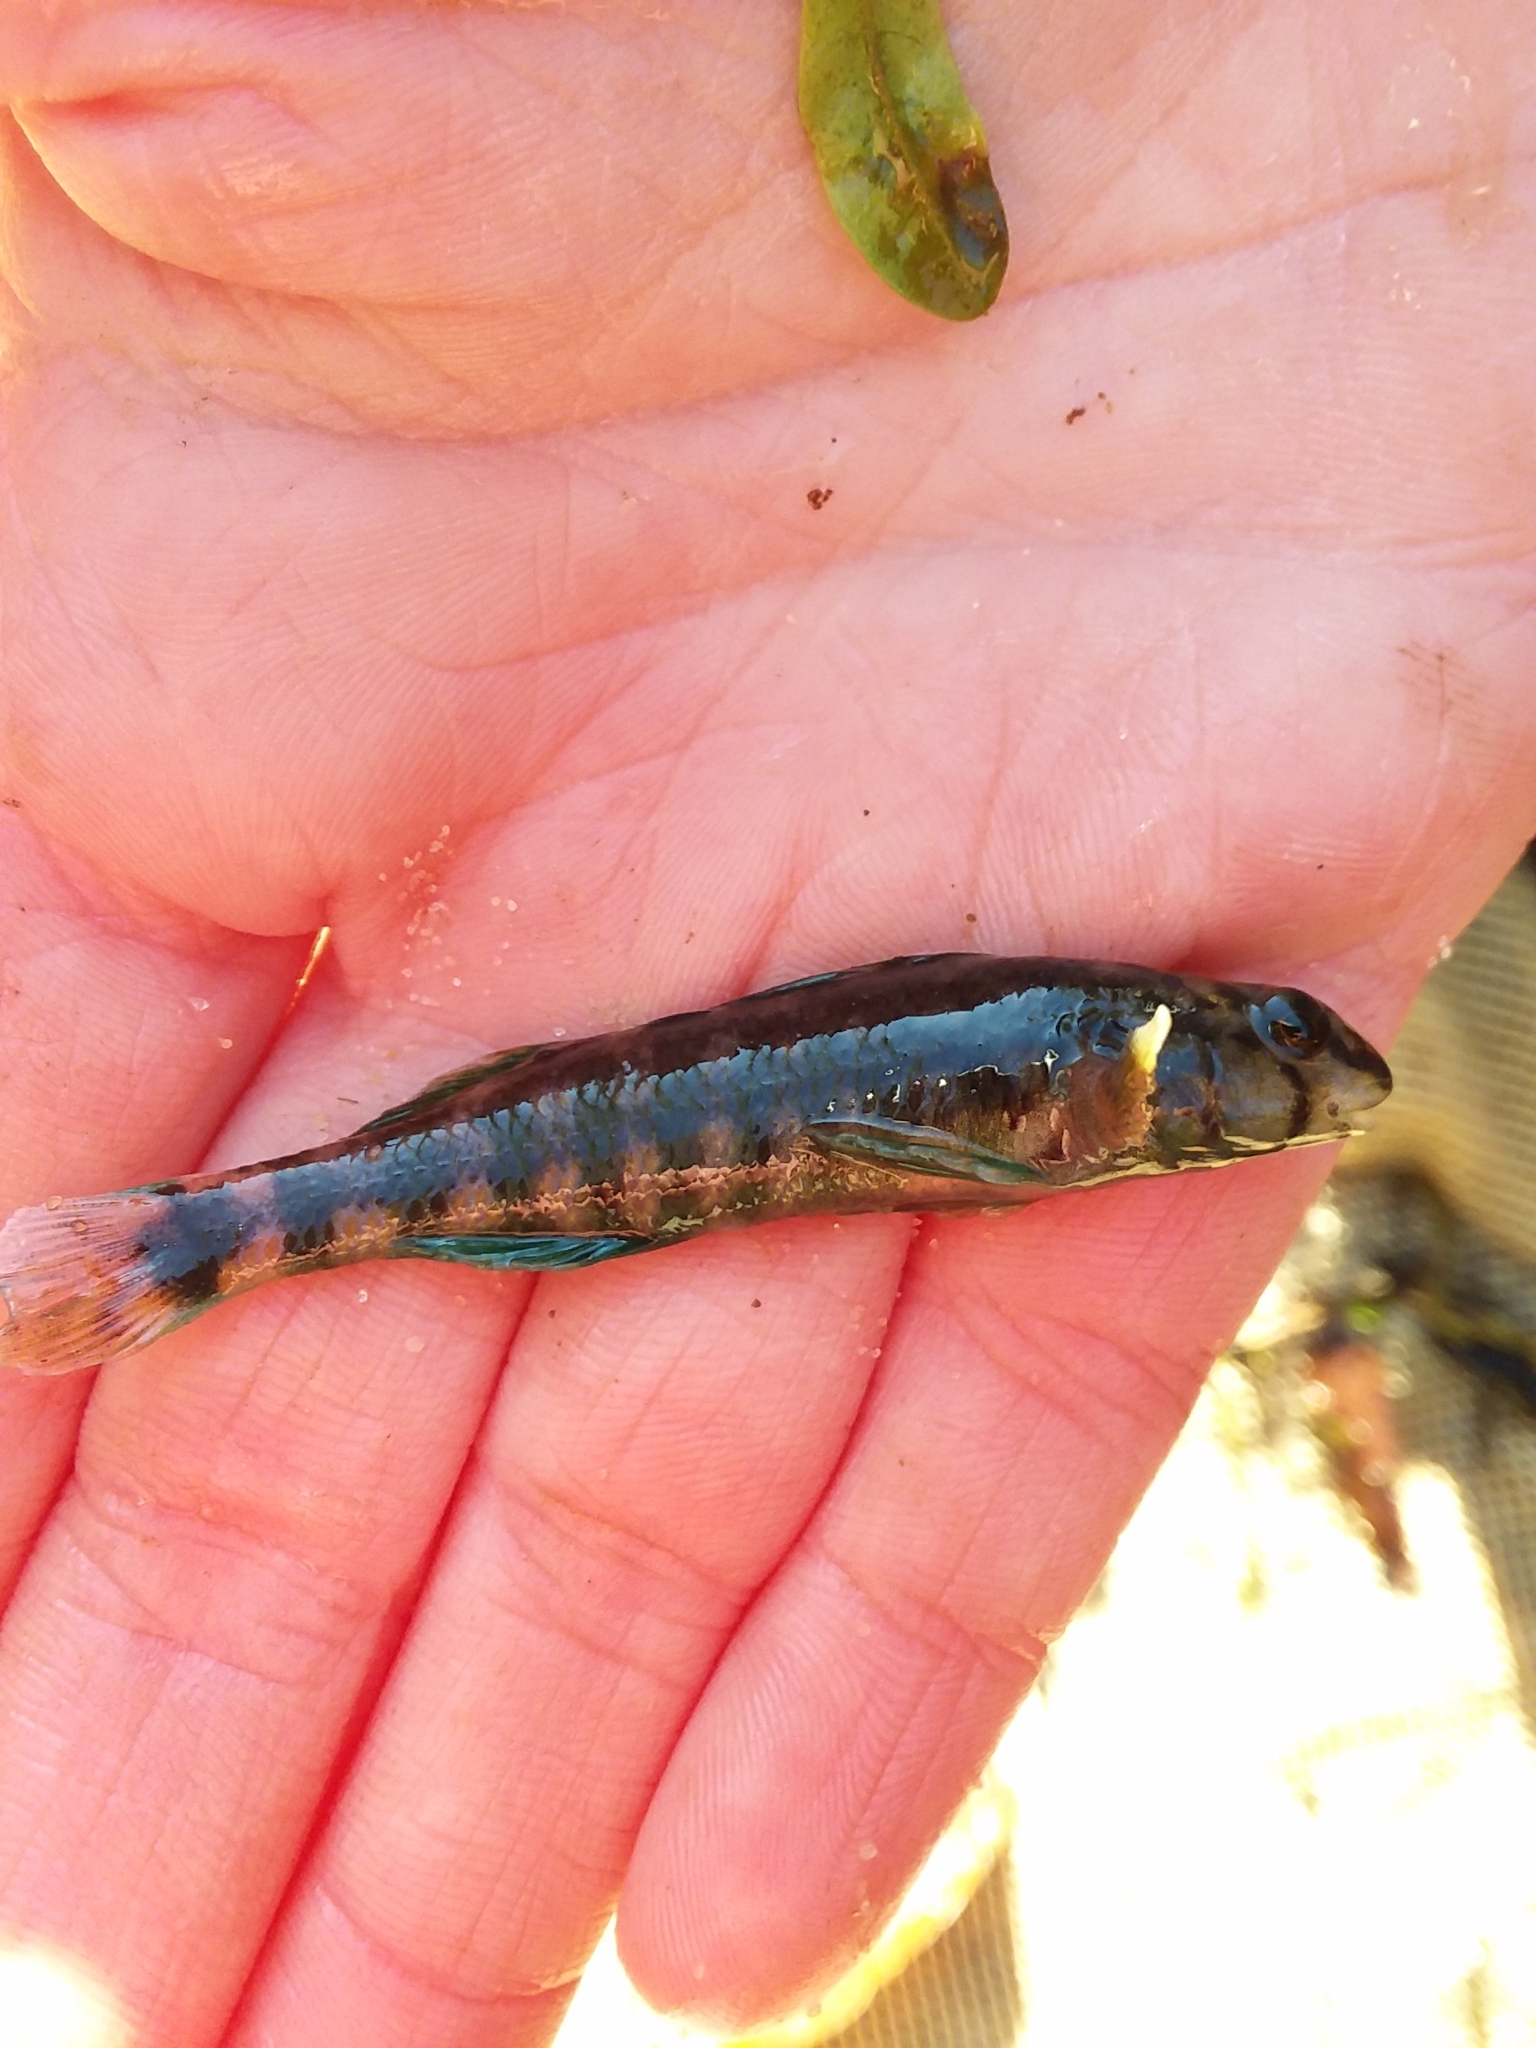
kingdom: Animalia
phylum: Chordata
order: Perciformes
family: Percidae
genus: Etheostoma
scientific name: Etheostoma lynceum
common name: Brighteye darter
